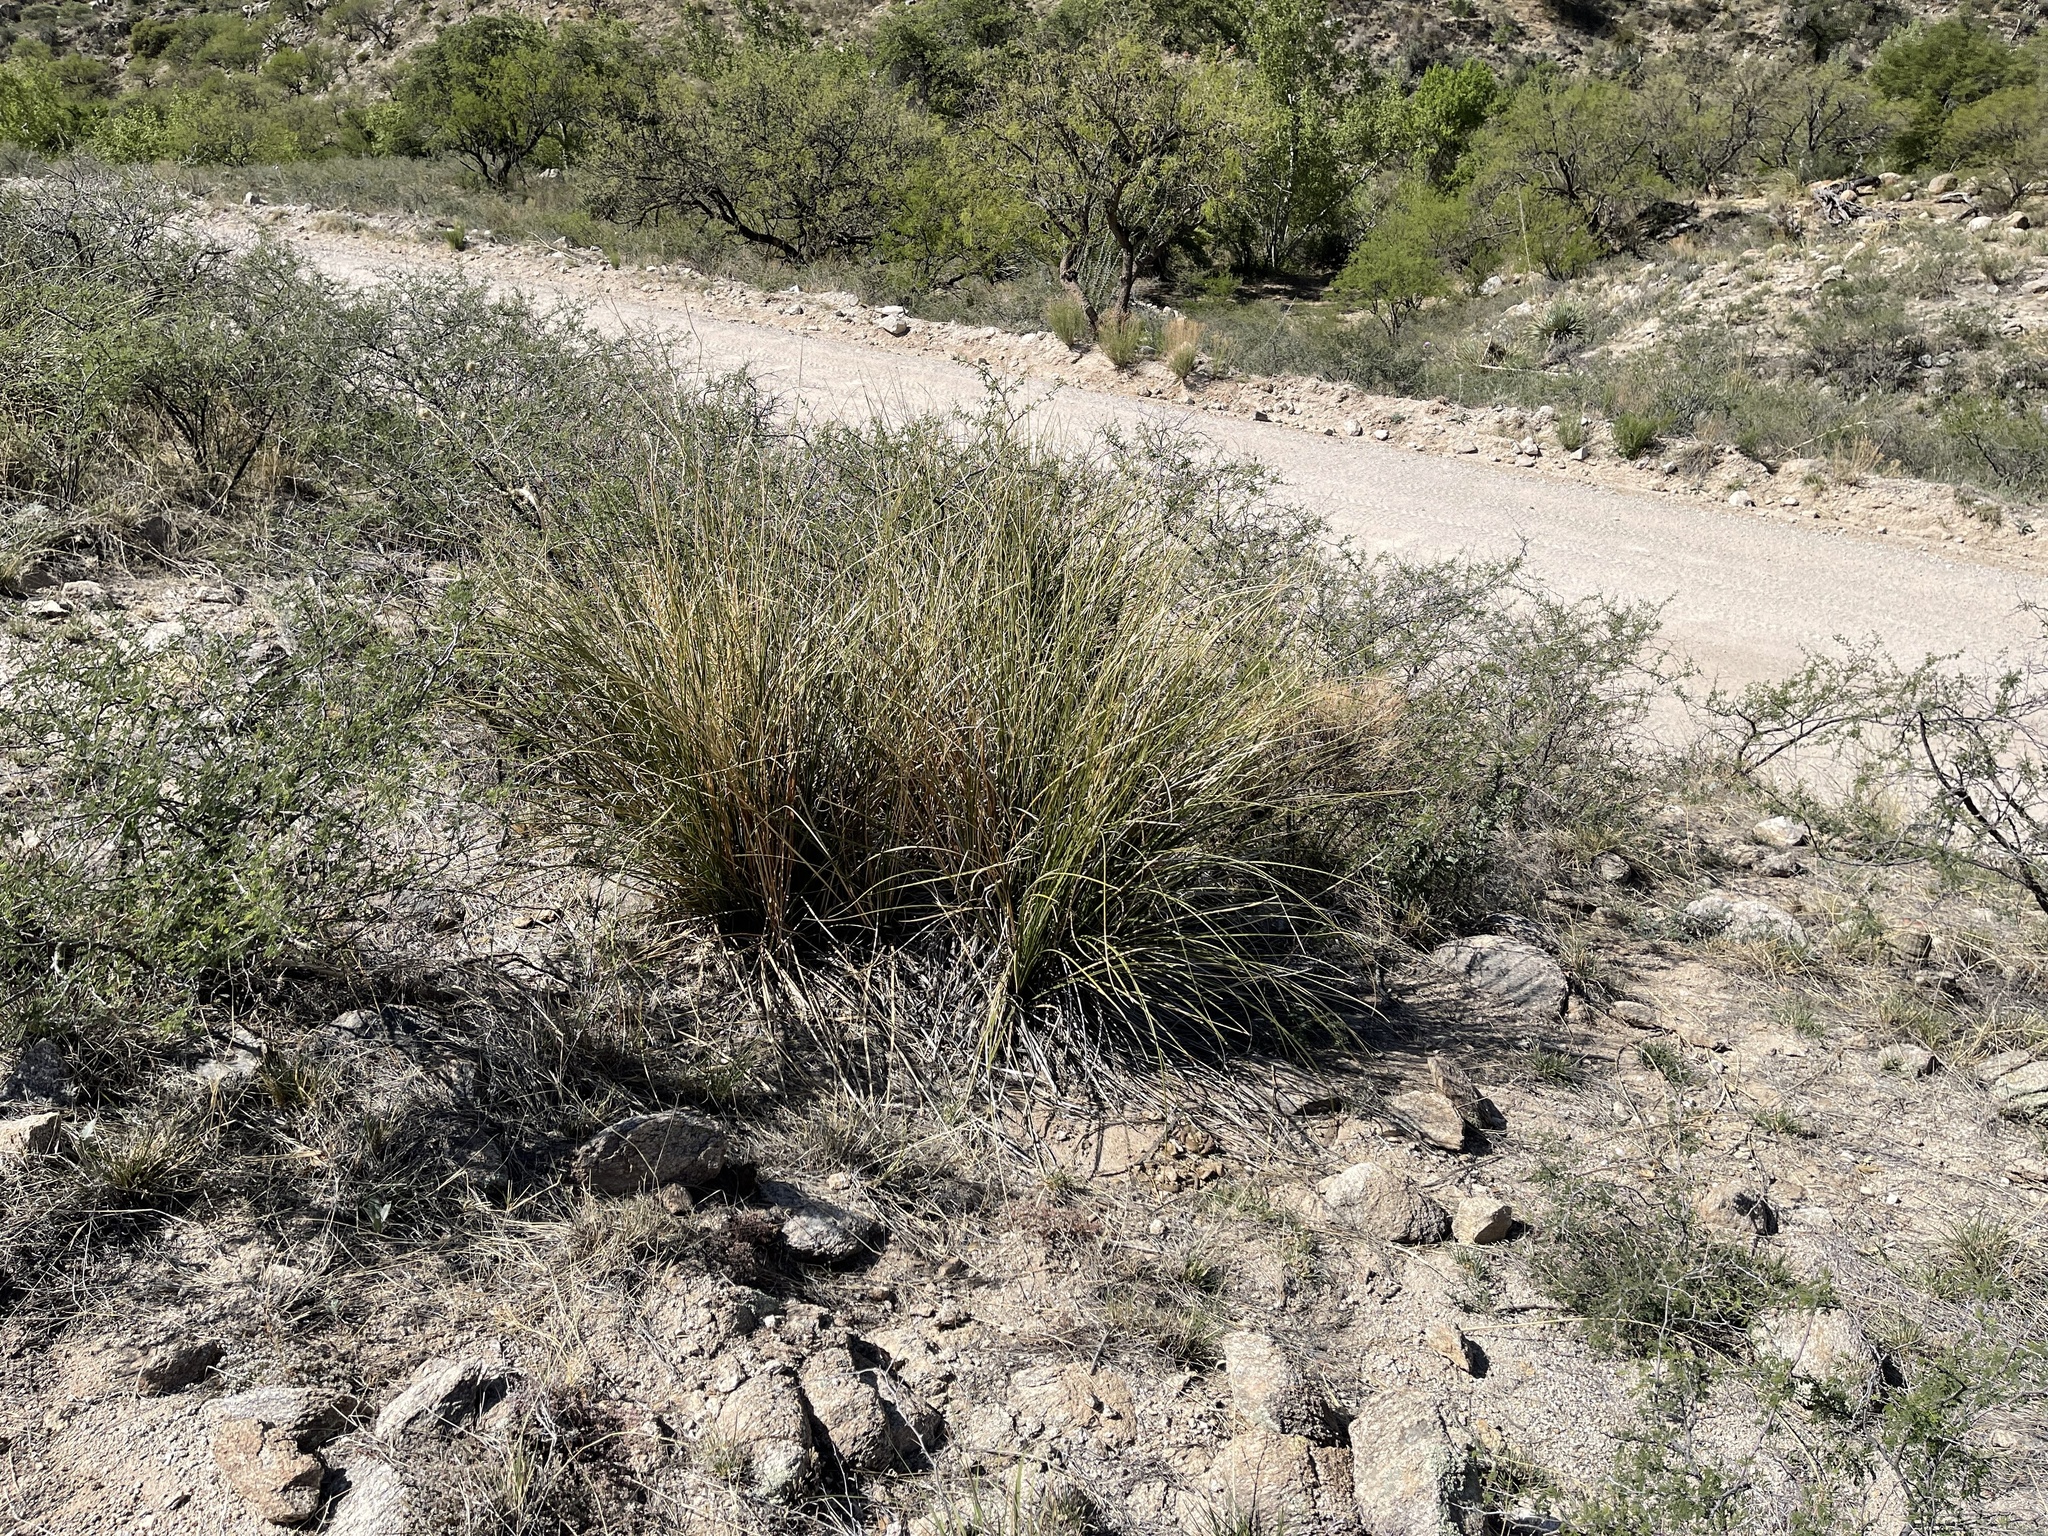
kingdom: Plantae
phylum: Tracheophyta
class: Liliopsida
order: Asparagales
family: Asparagaceae
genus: Nolina
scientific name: Nolina microcarpa
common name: Bear-grass
